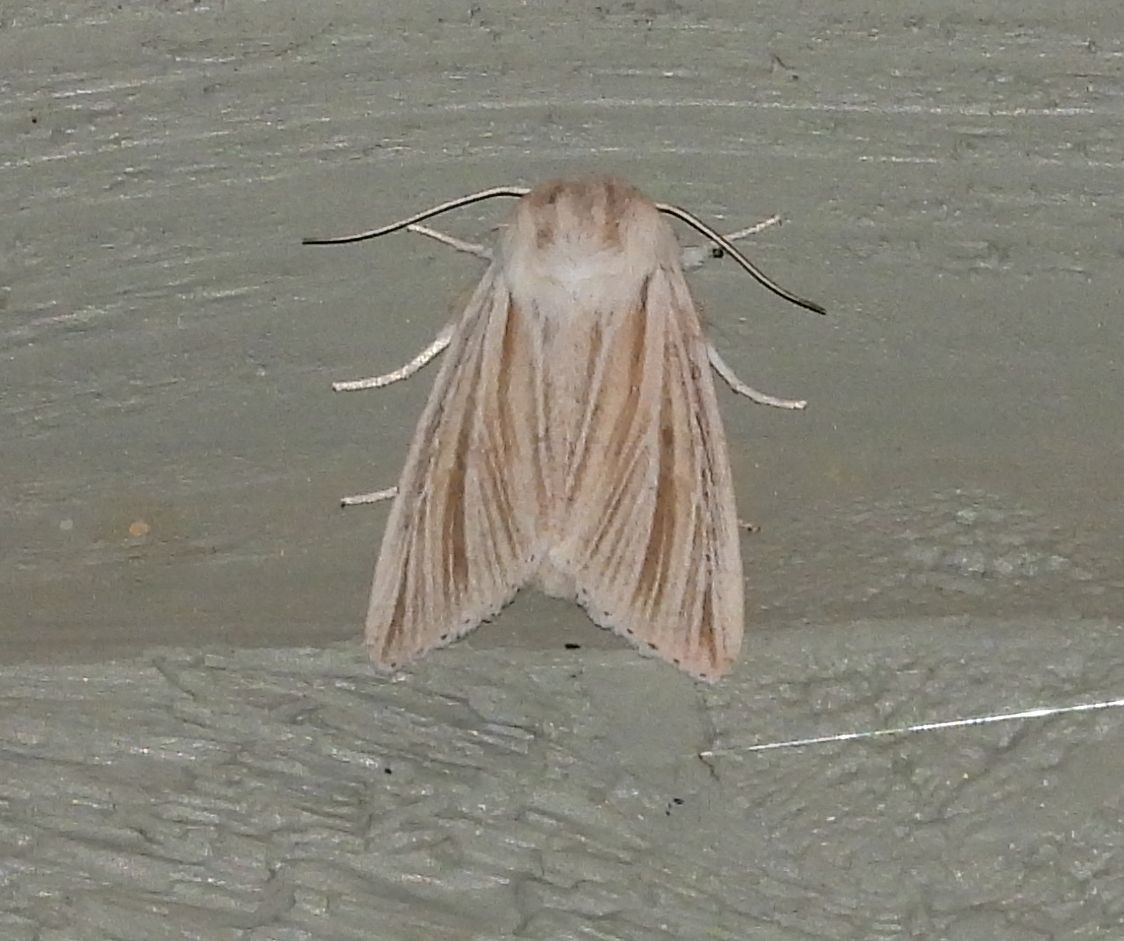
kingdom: Animalia
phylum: Arthropoda
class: Insecta
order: Lepidoptera
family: Noctuidae
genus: Acronicta
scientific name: Acronicta insularis
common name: Henry's marsh moth
